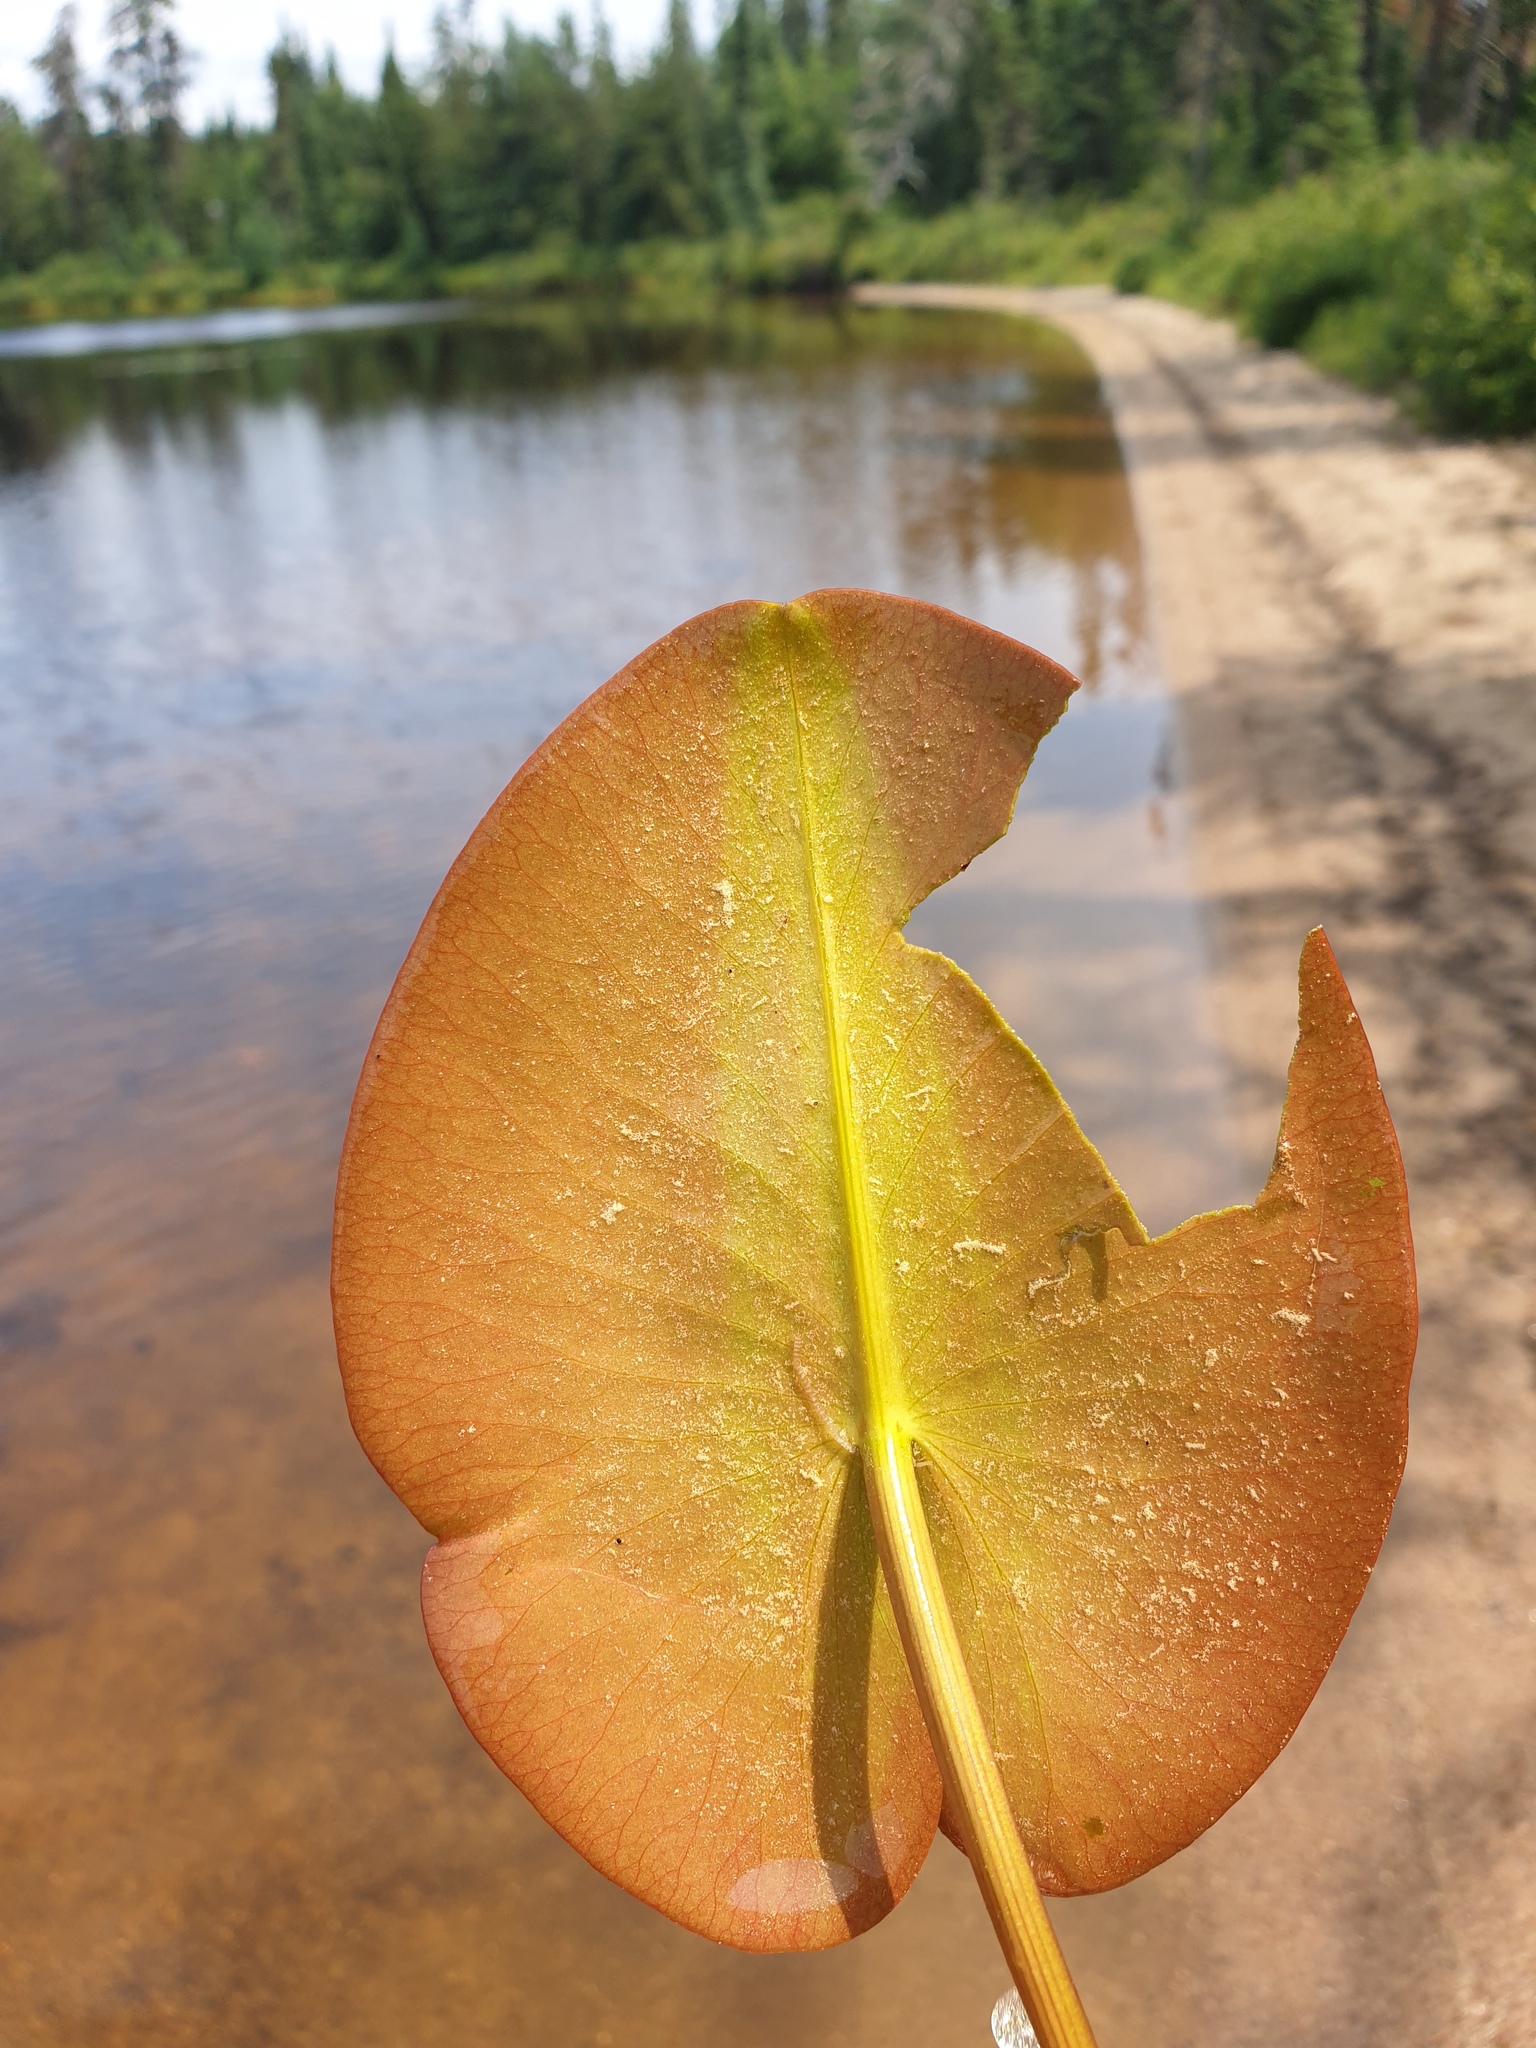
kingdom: Plantae
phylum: Tracheophyta
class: Magnoliopsida
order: Nymphaeales
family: Nymphaeaceae
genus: Nuphar
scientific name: Nuphar variegata
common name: Beaver-root
